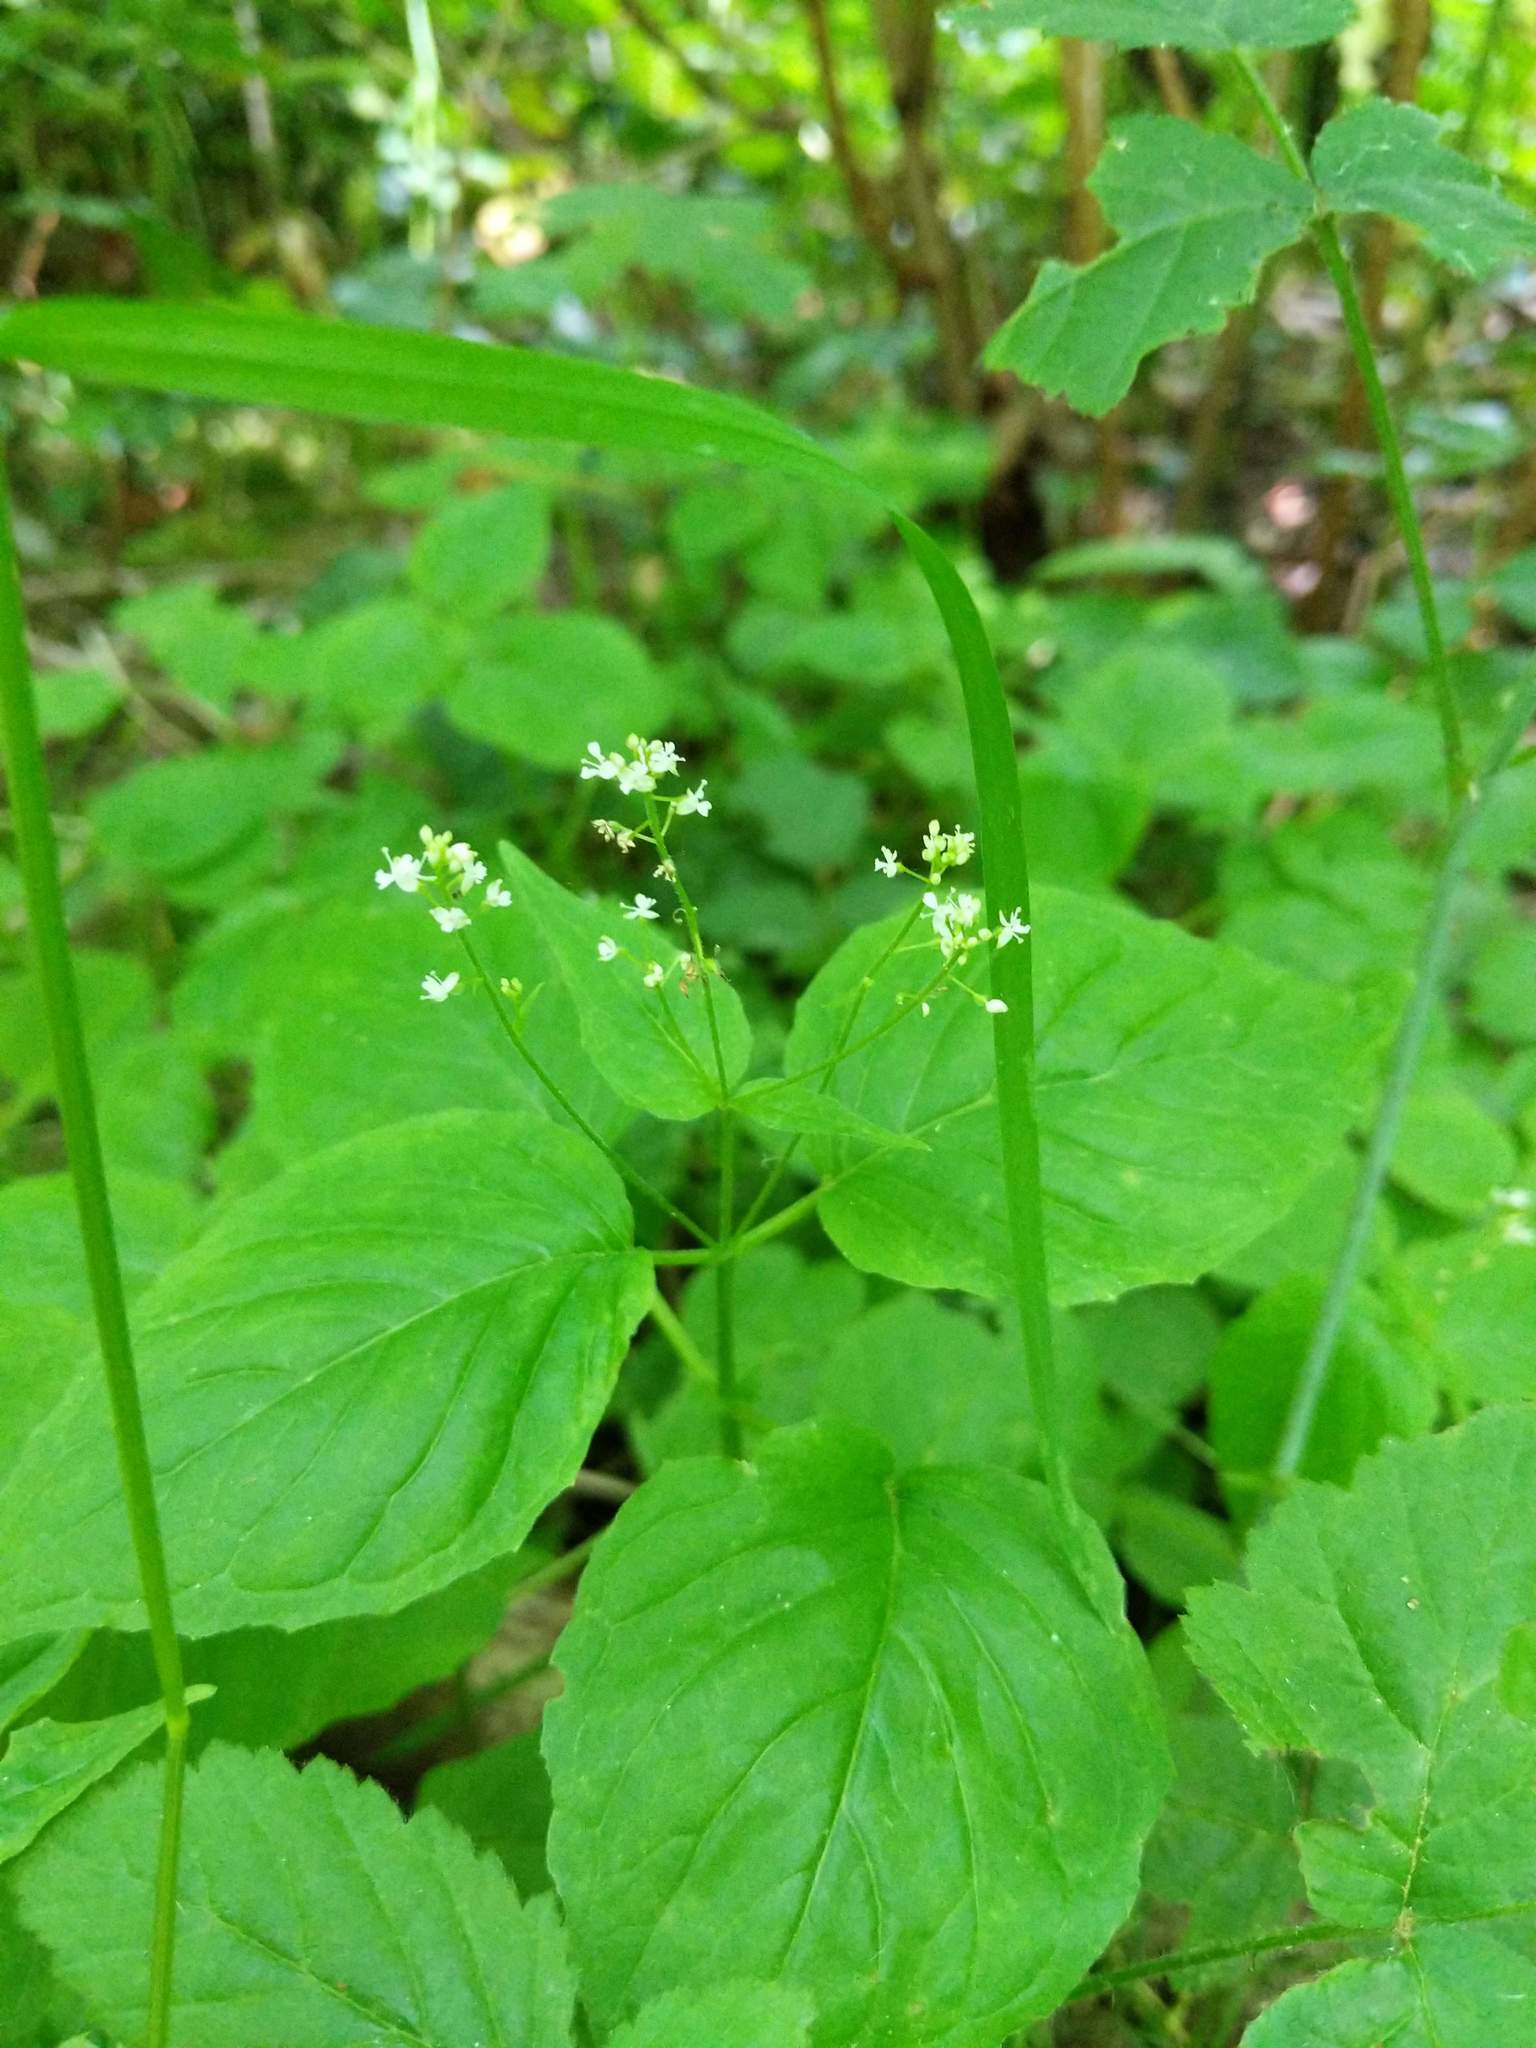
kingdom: Plantae
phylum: Tracheophyta
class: Magnoliopsida
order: Myrtales
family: Onagraceae
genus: Circaea
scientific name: Circaea alpina
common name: Alpine enchanter's-nightshade
